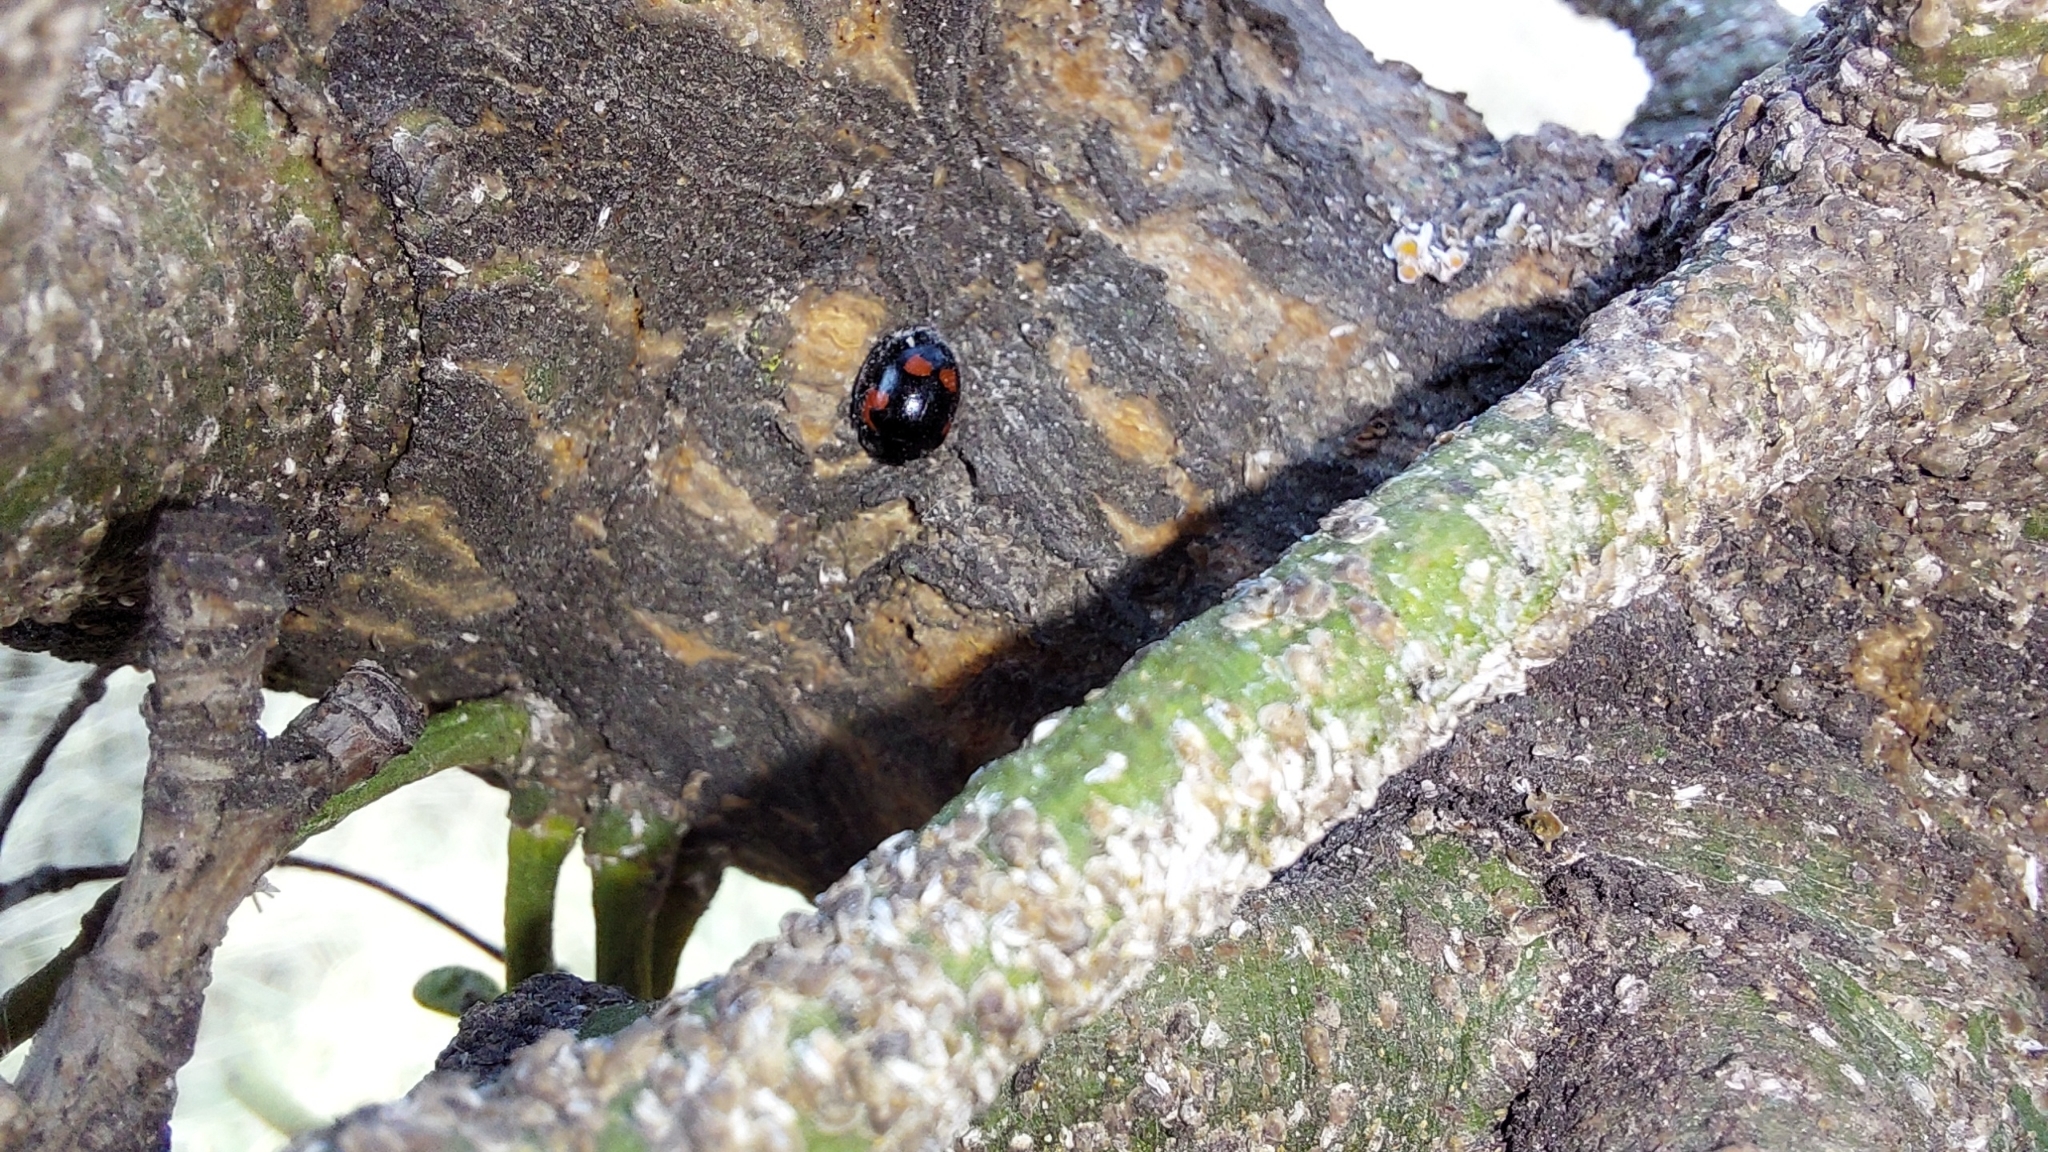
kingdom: Animalia
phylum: Arthropoda
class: Insecta
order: Coleoptera
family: Coccinellidae
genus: Brumus
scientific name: Brumus quadripustulatus
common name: Ladybird beetle
